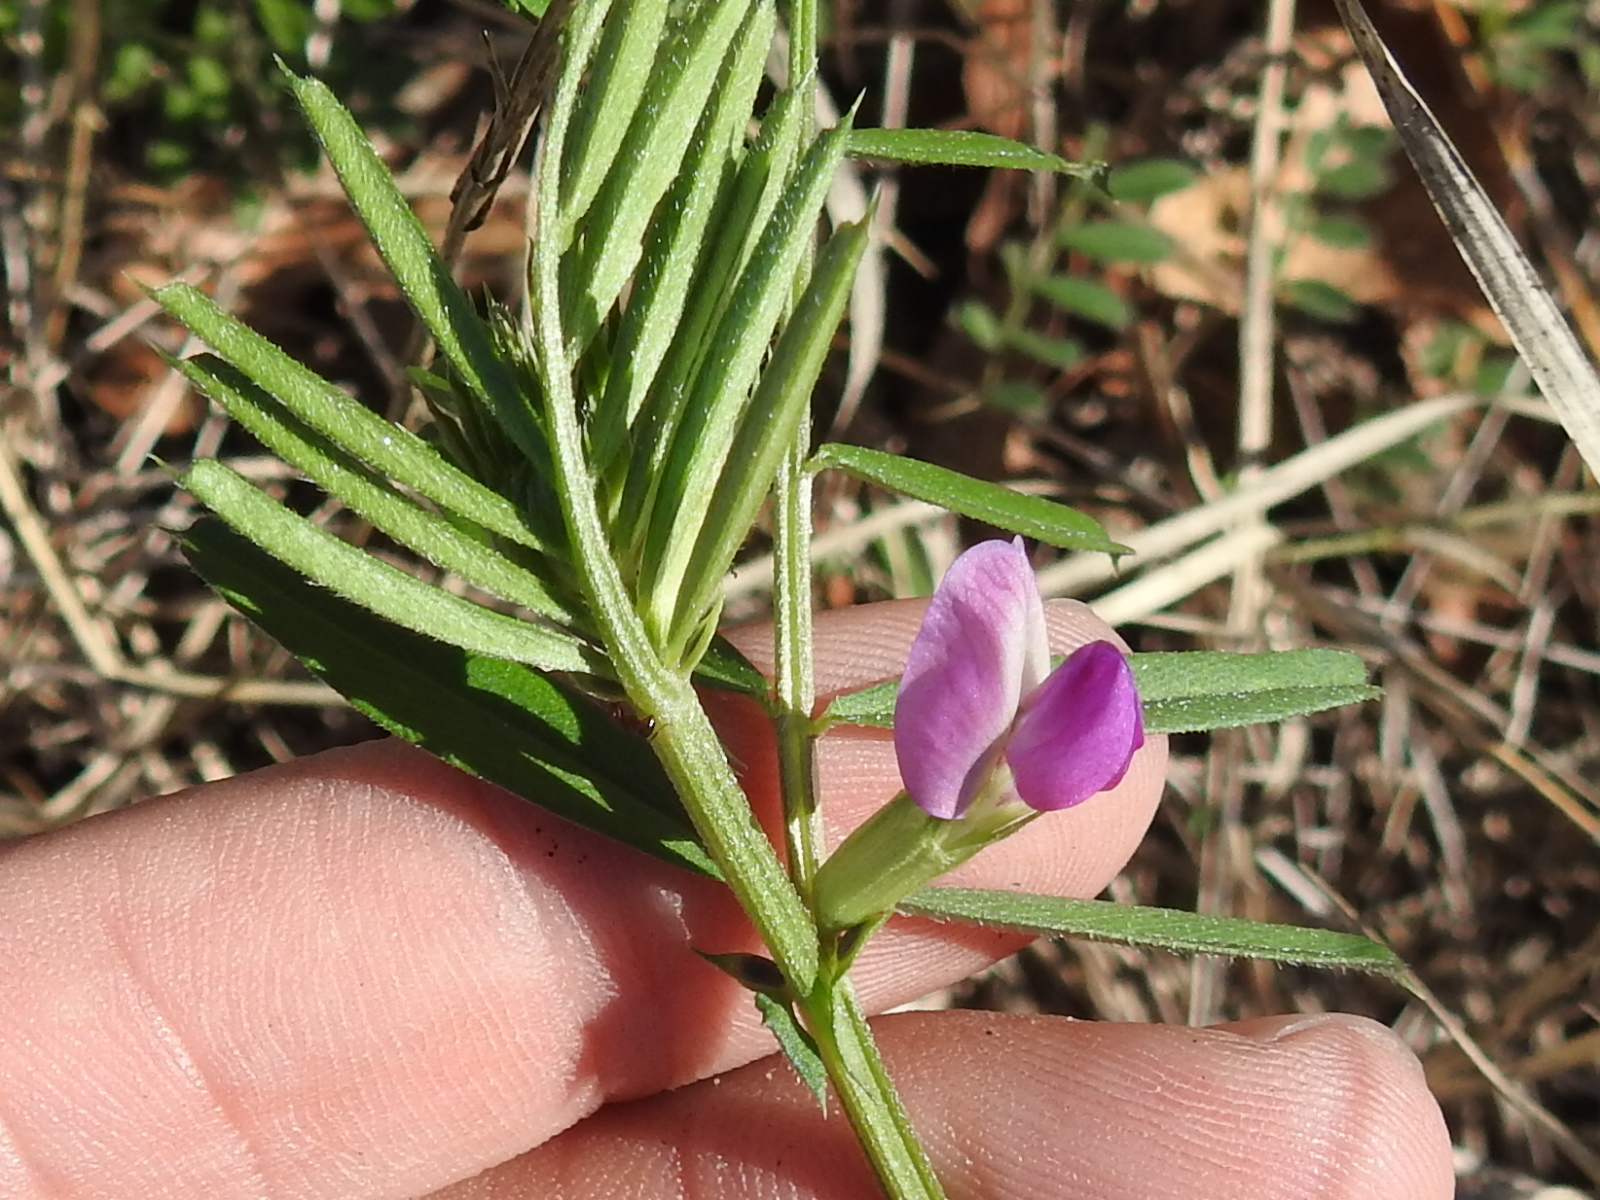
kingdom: Plantae
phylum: Tracheophyta
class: Magnoliopsida
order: Fabales
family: Fabaceae
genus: Vicia
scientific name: Vicia sativa
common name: Garden vetch
